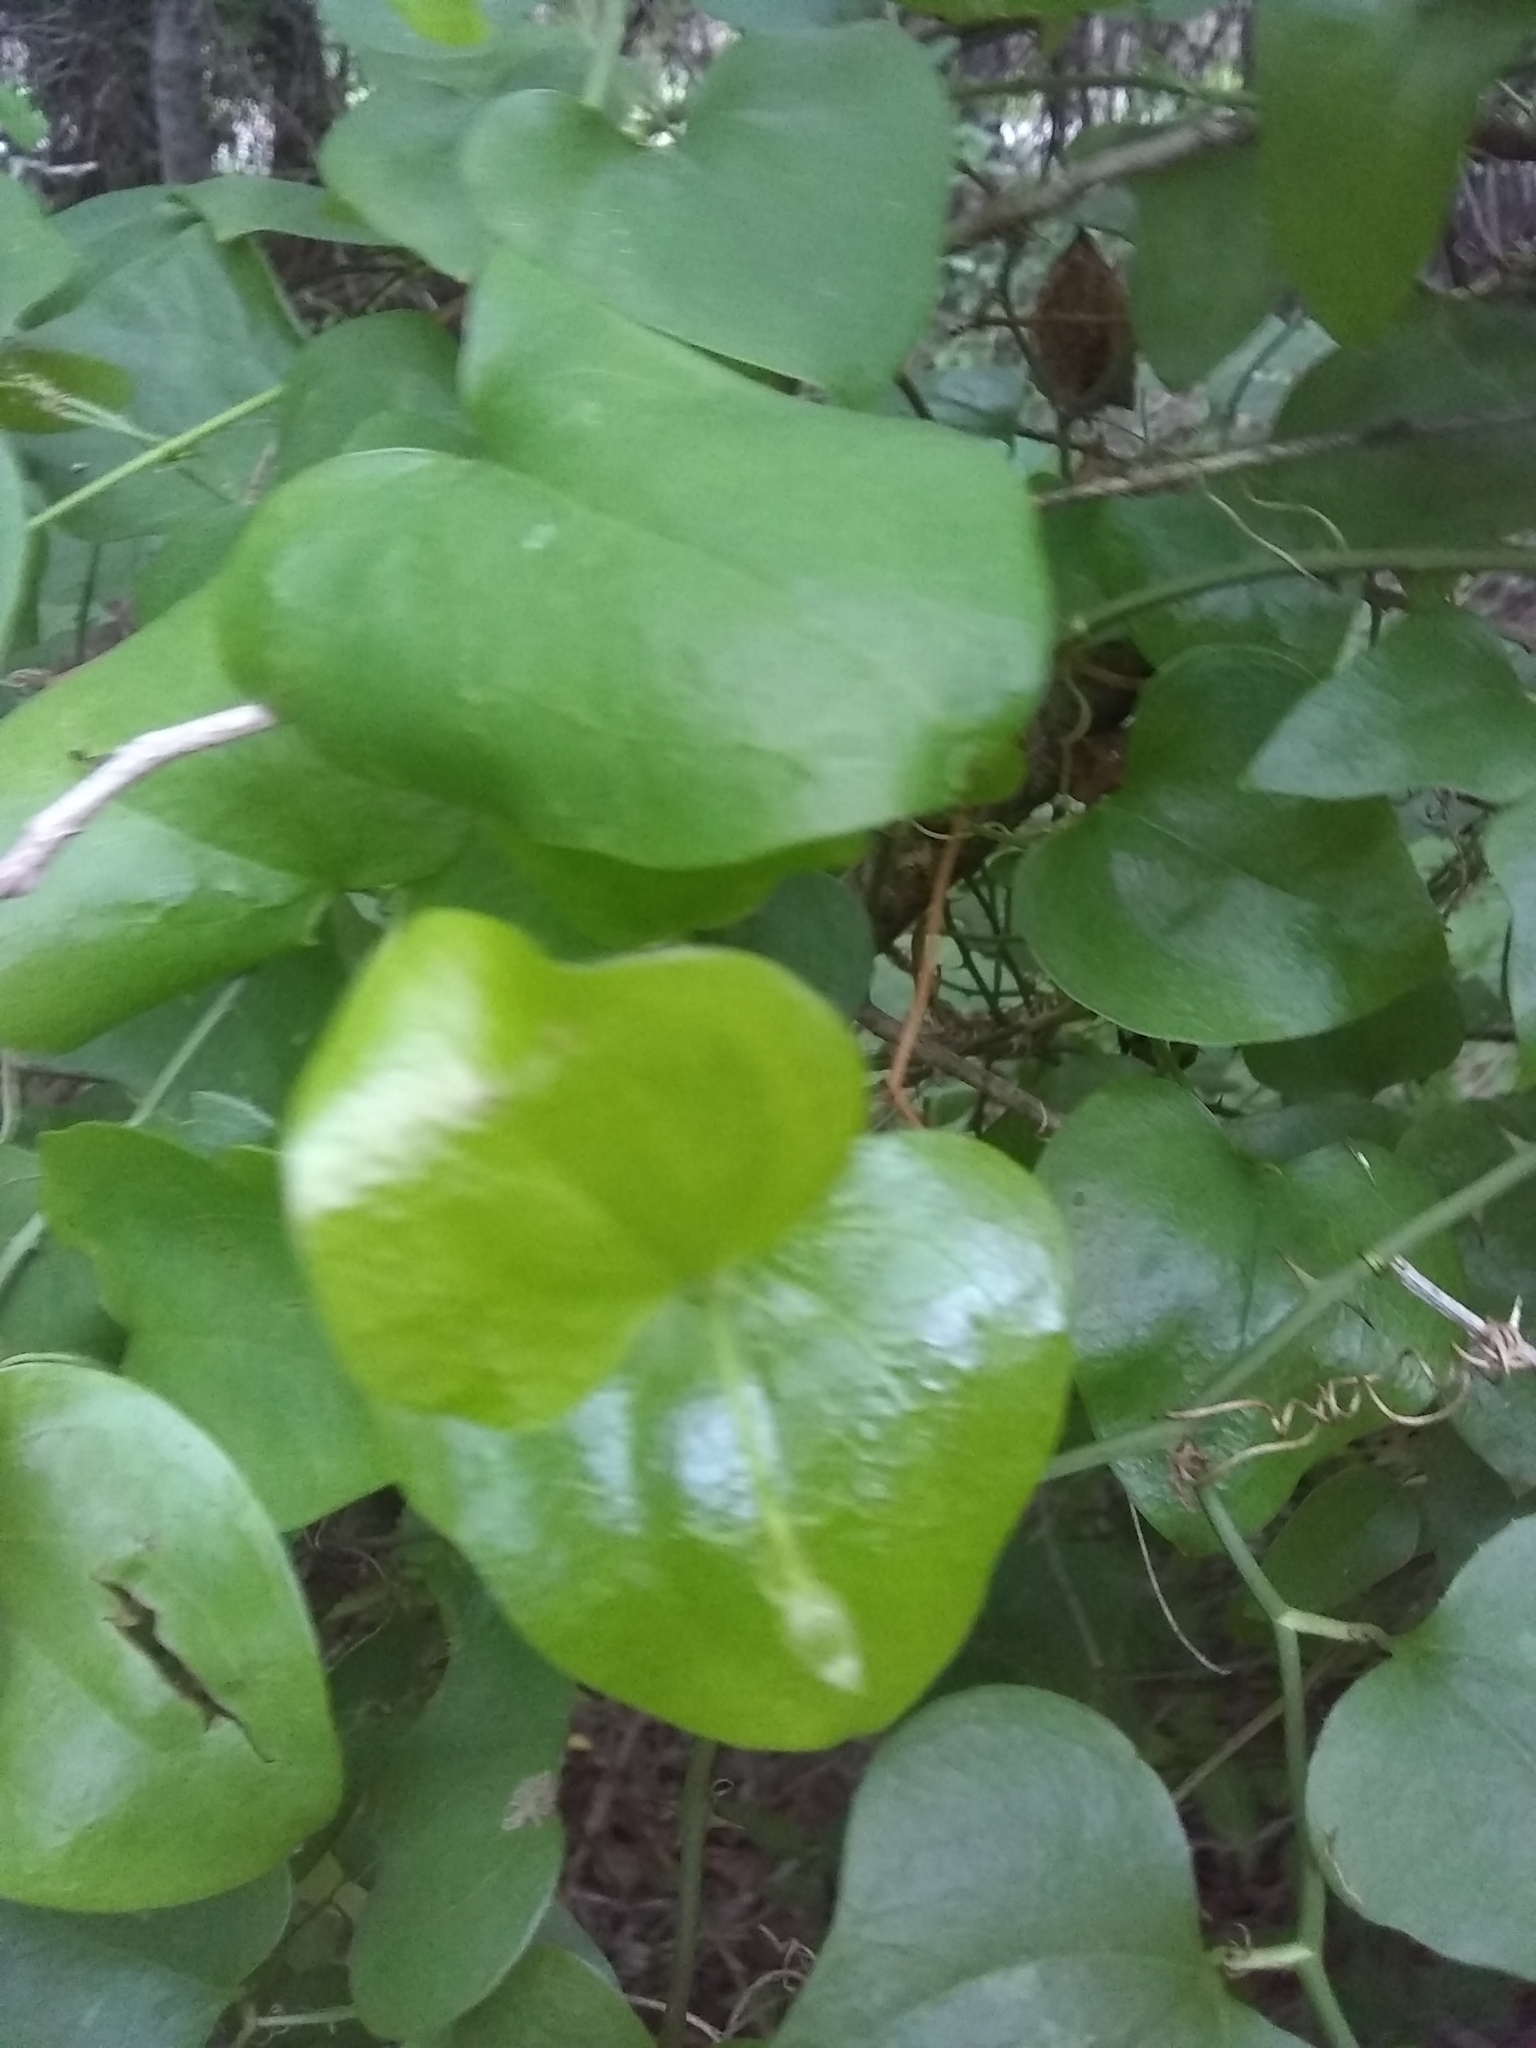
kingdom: Plantae
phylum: Tracheophyta
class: Liliopsida
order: Liliales
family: Smilacaceae
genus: Smilax
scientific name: Smilax bona-nox
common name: Catbrier
